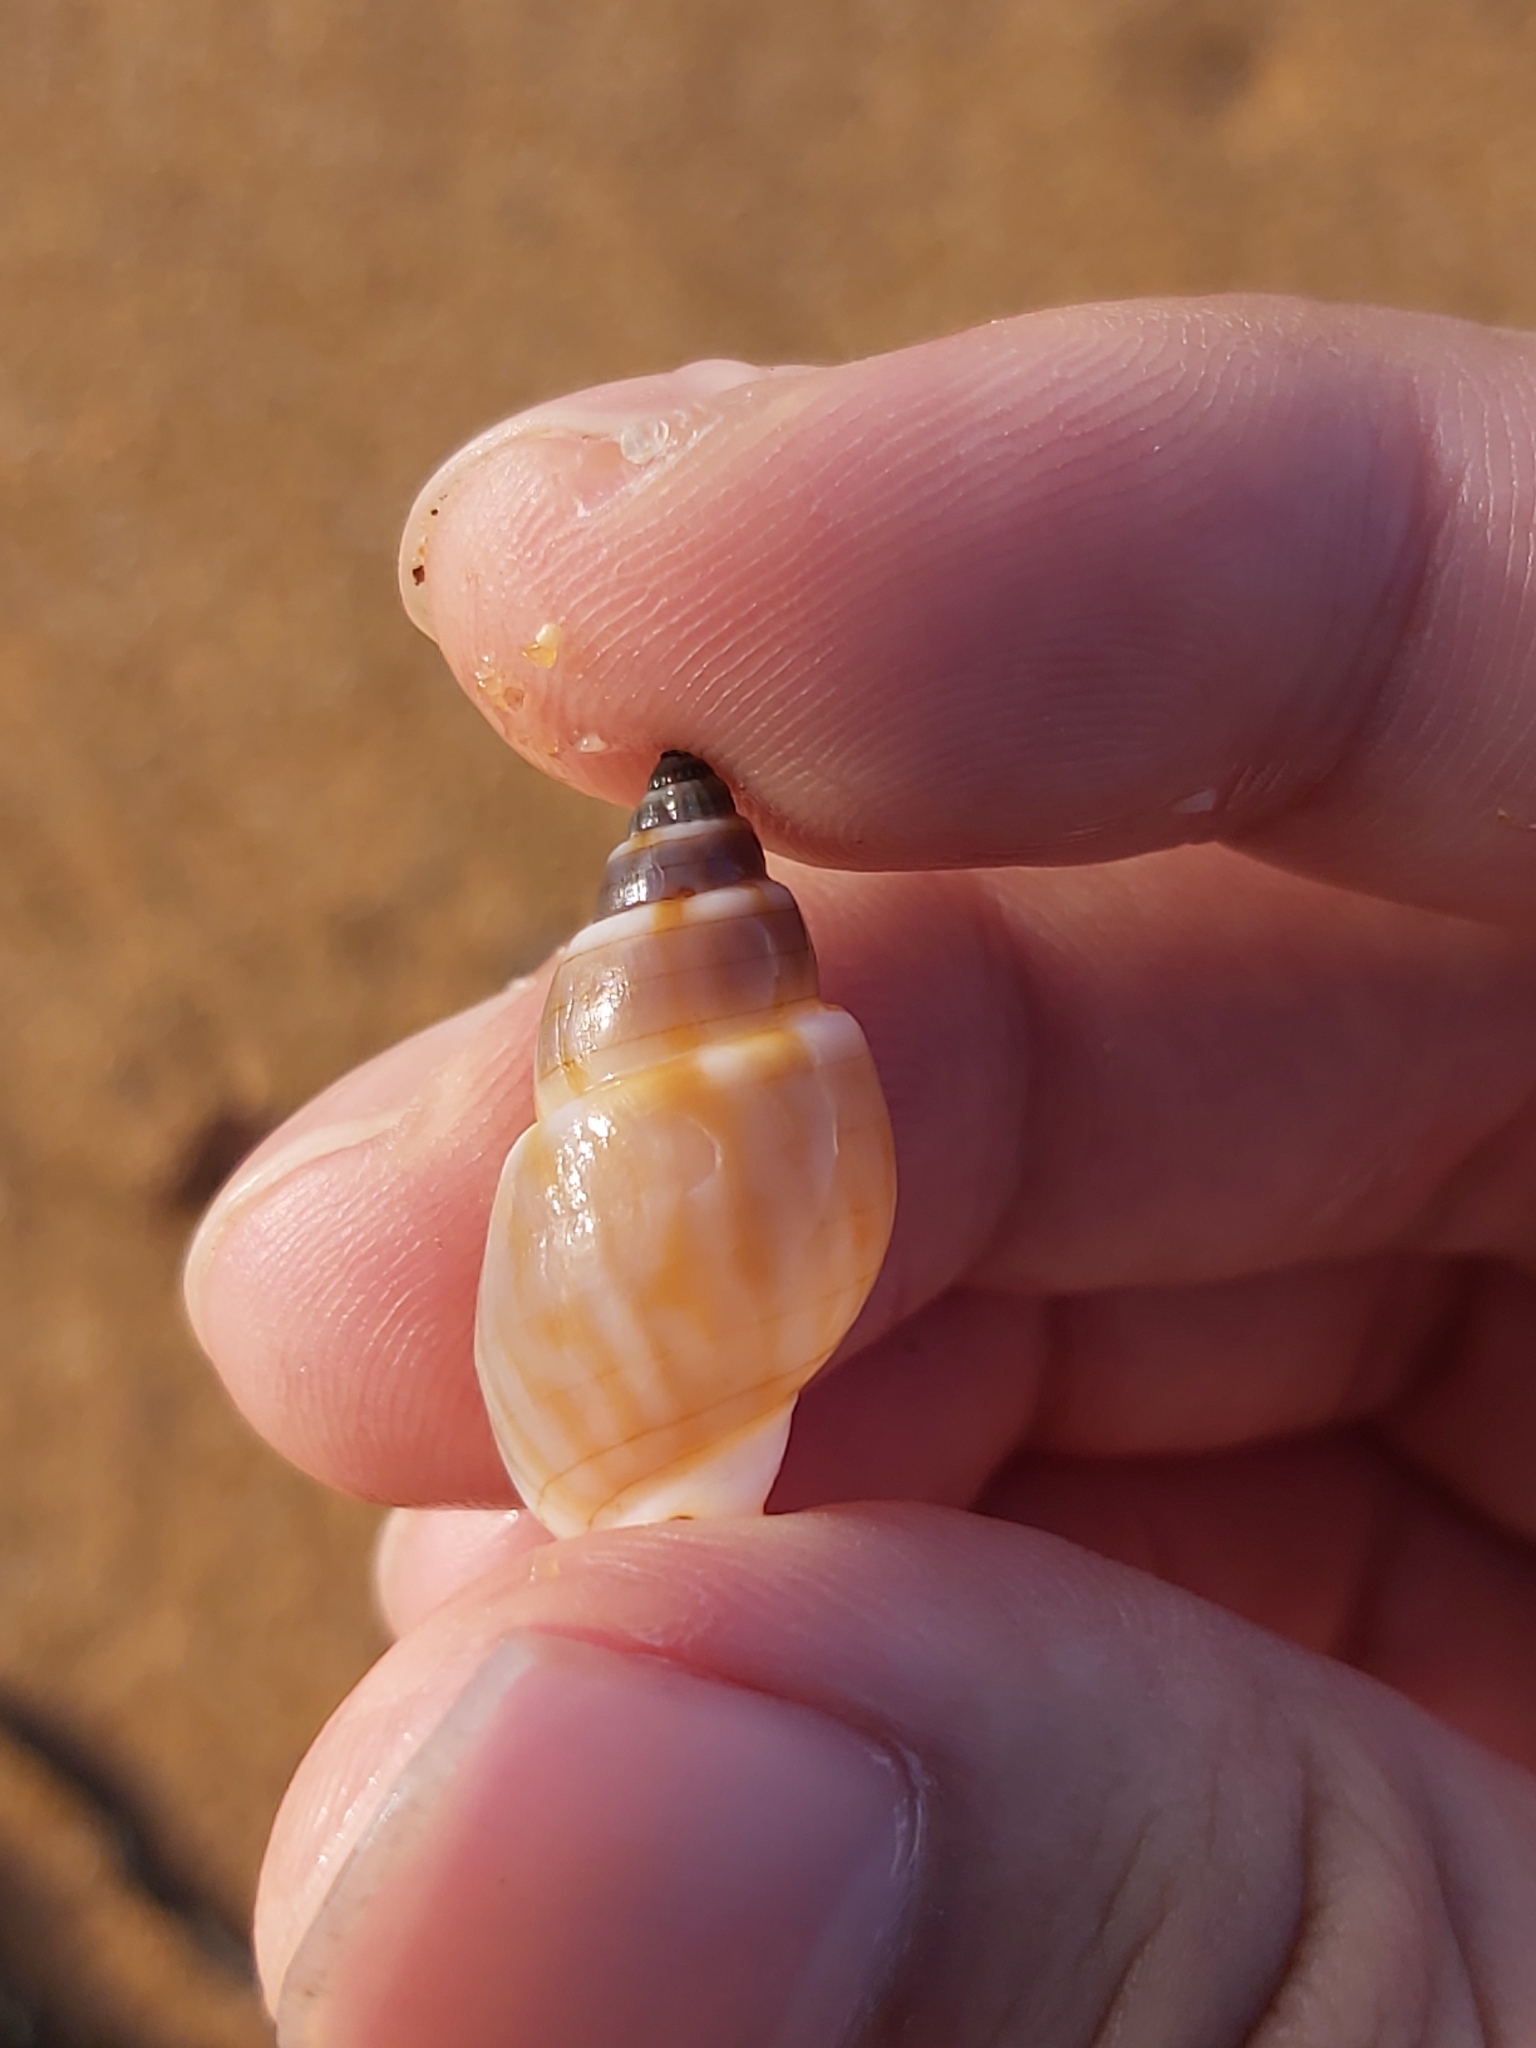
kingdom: Animalia
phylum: Mollusca
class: Gastropoda
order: Neogastropoda
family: Nassariidae
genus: Nassarius
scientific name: Nassarius particeps
